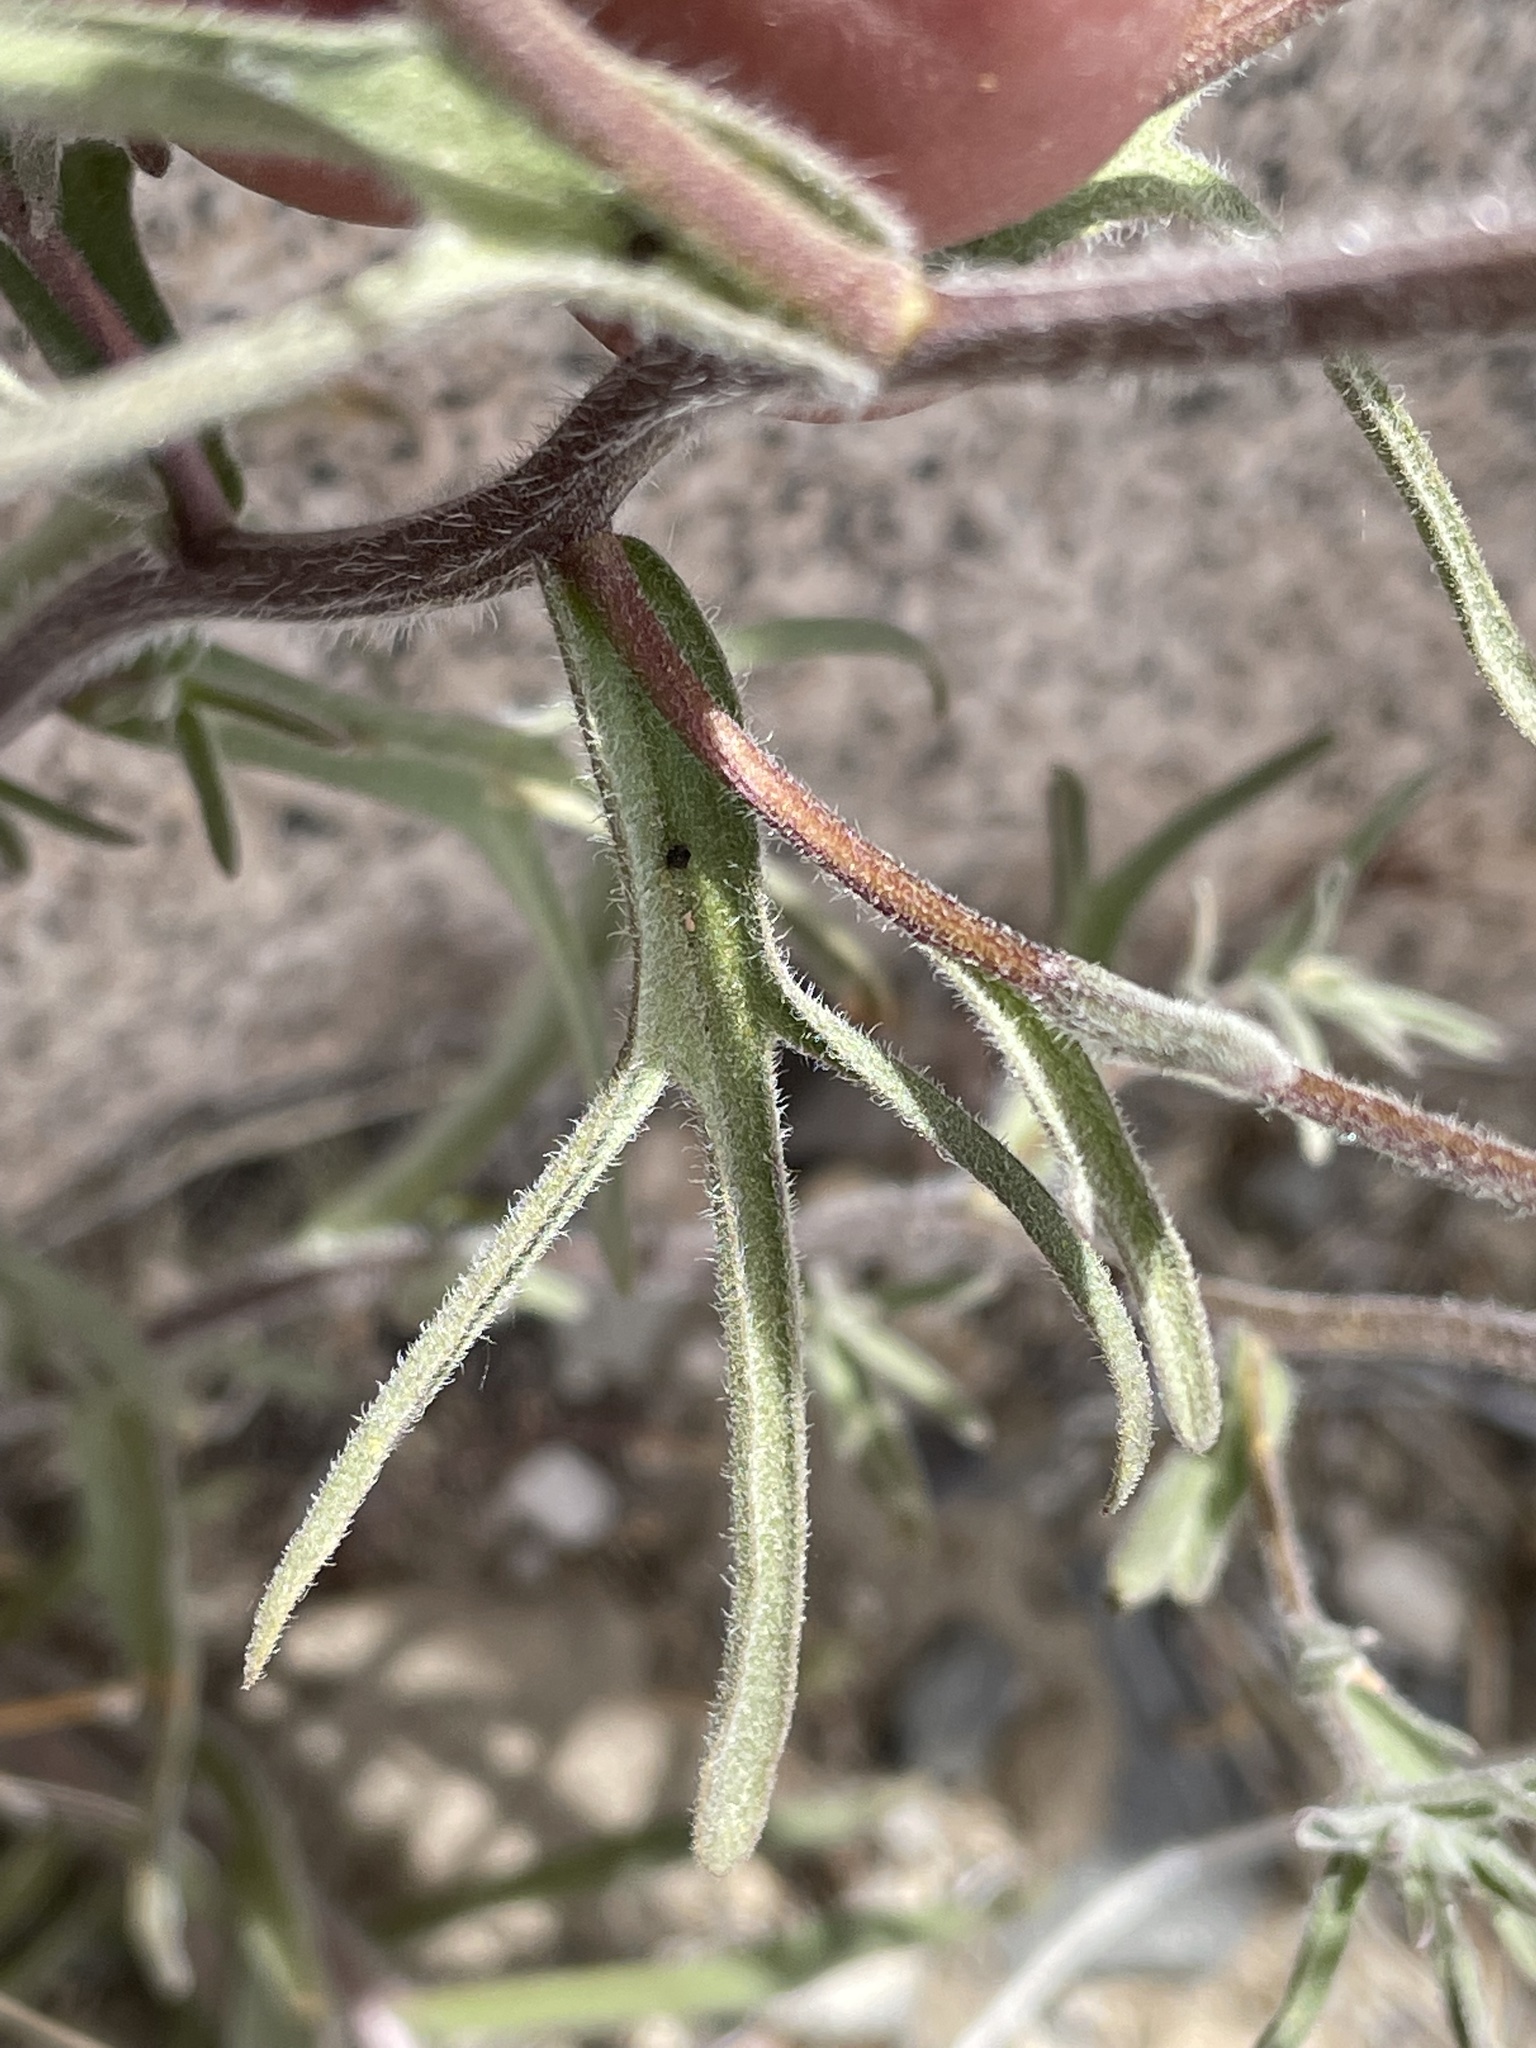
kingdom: Plantae
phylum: Tracheophyta
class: Magnoliopsida
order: Lamiales
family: Orobanchaceae
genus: Castilleja
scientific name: Castilleja chromosa
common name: Desert paintbrush
